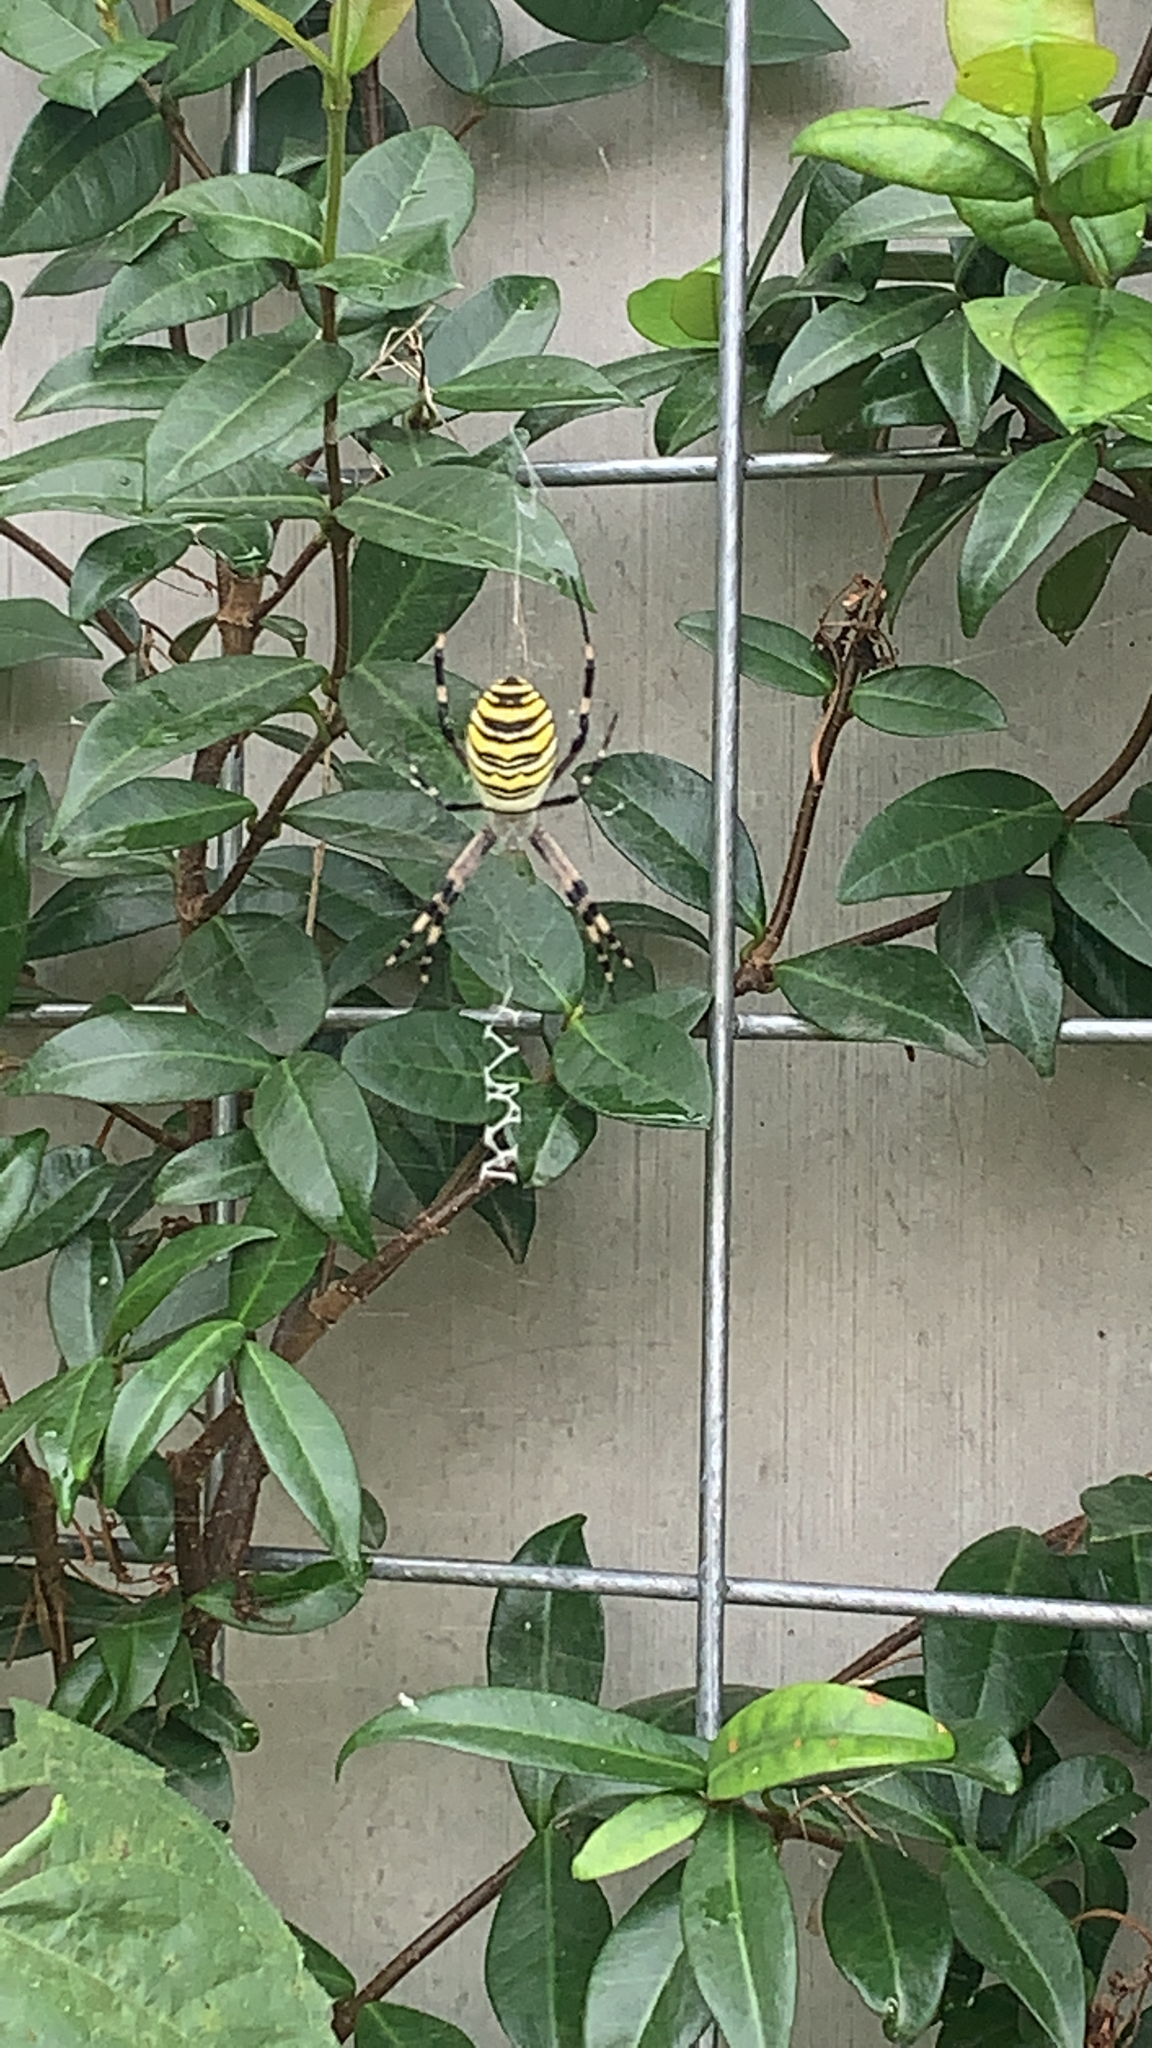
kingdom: Animalia
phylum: Arthropoda
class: Arachnida
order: Araneae
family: Araneidae
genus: Argiope
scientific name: Argiope bruennichi
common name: Wasp spider
